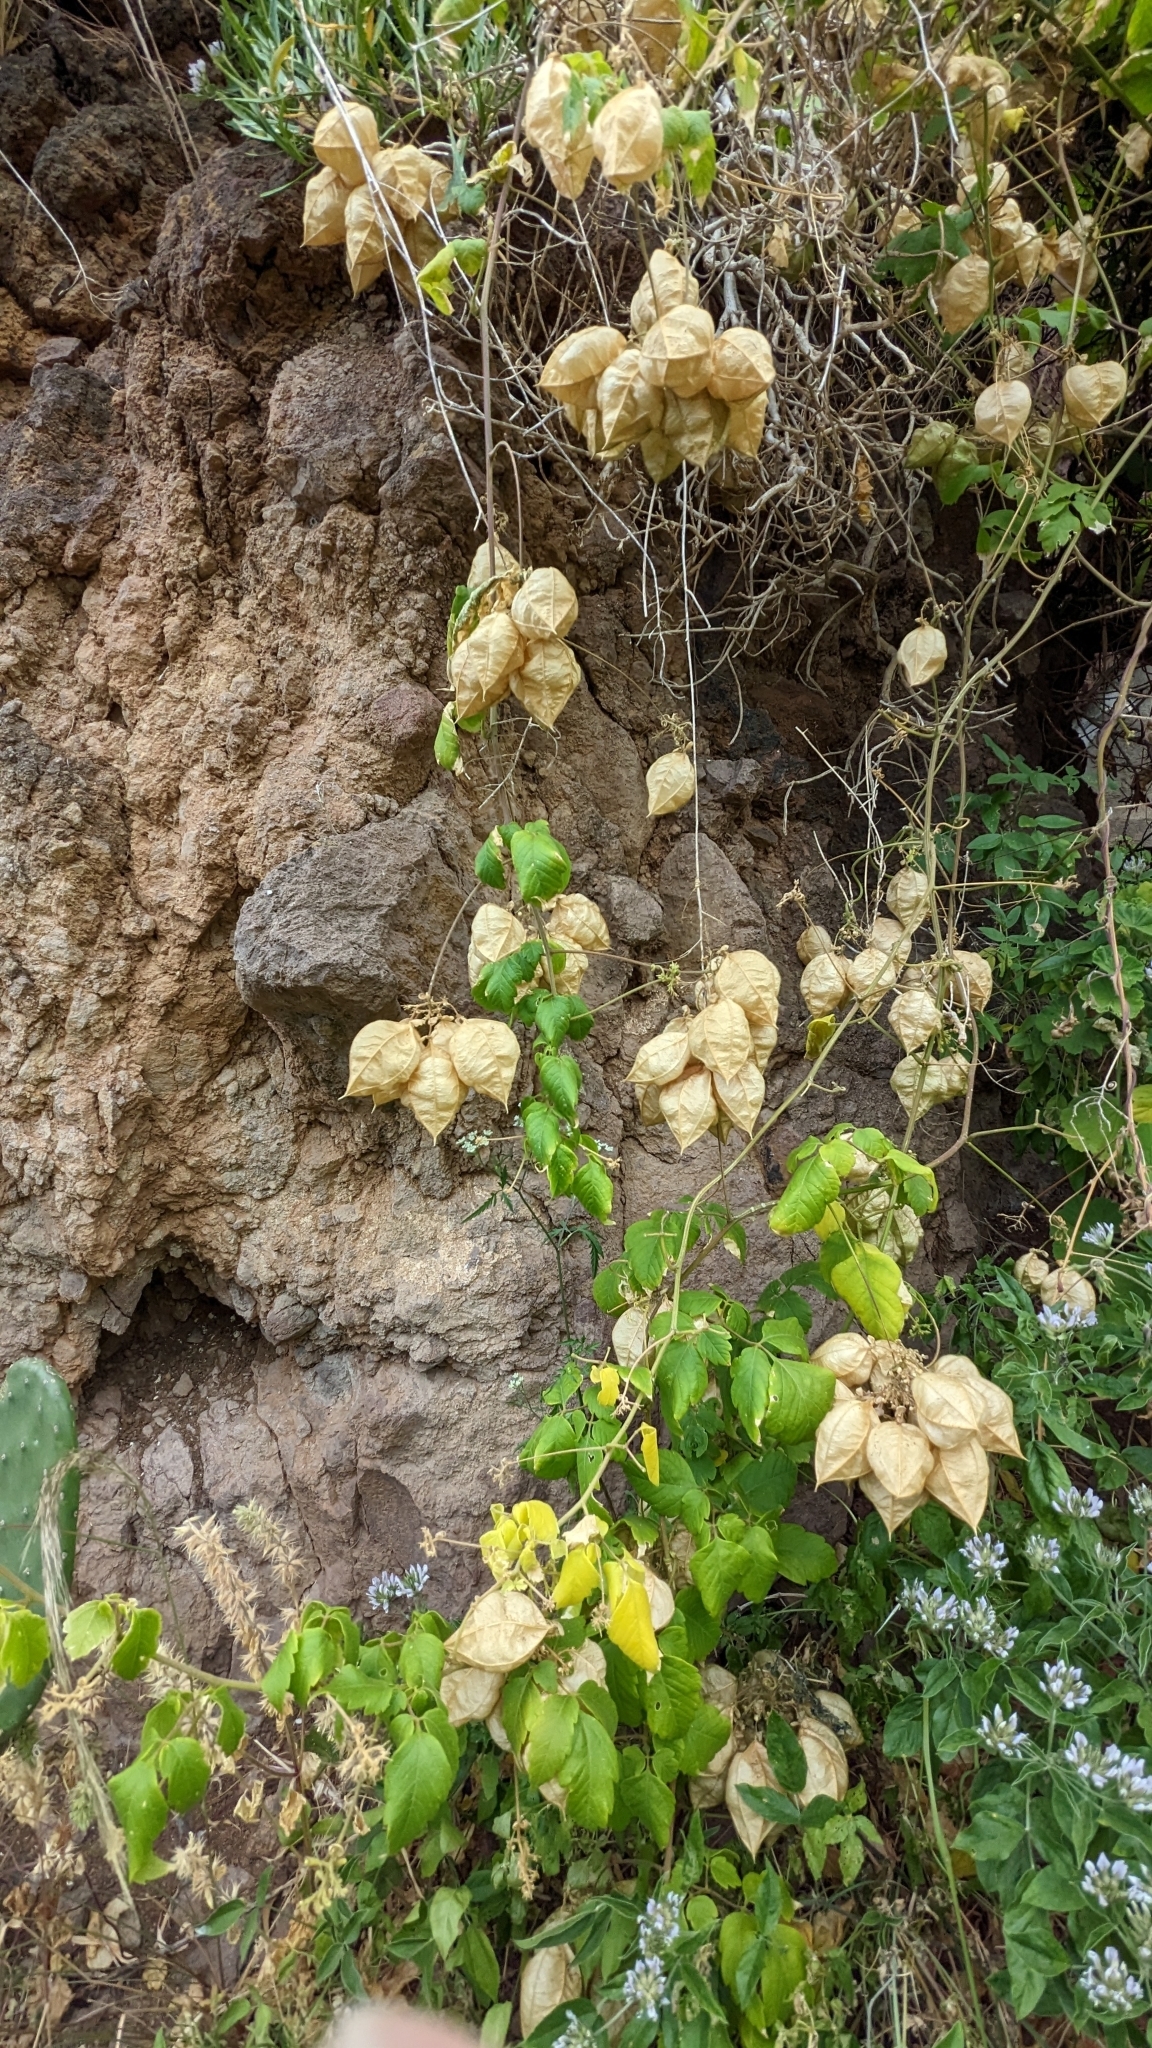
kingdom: Plantae
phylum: Tracheophyta
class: Magnoliopsida
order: Sapindales
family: Sapindaceae
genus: Cardiospermum
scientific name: Cardiospermum grandiflorum
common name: Balloon vine
